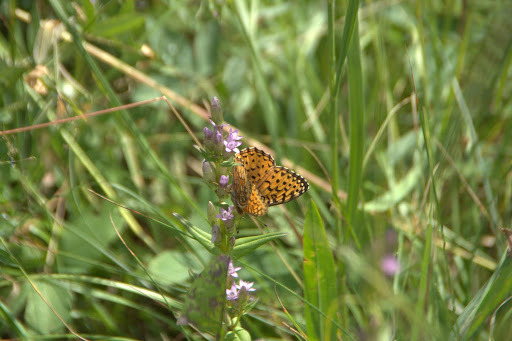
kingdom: Animalia
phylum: Arthropoda
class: Insecta
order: Lepidoptera
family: Nymphalidae
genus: Speyeria
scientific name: Speyeria atlantis
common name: Atlantis fritillary
